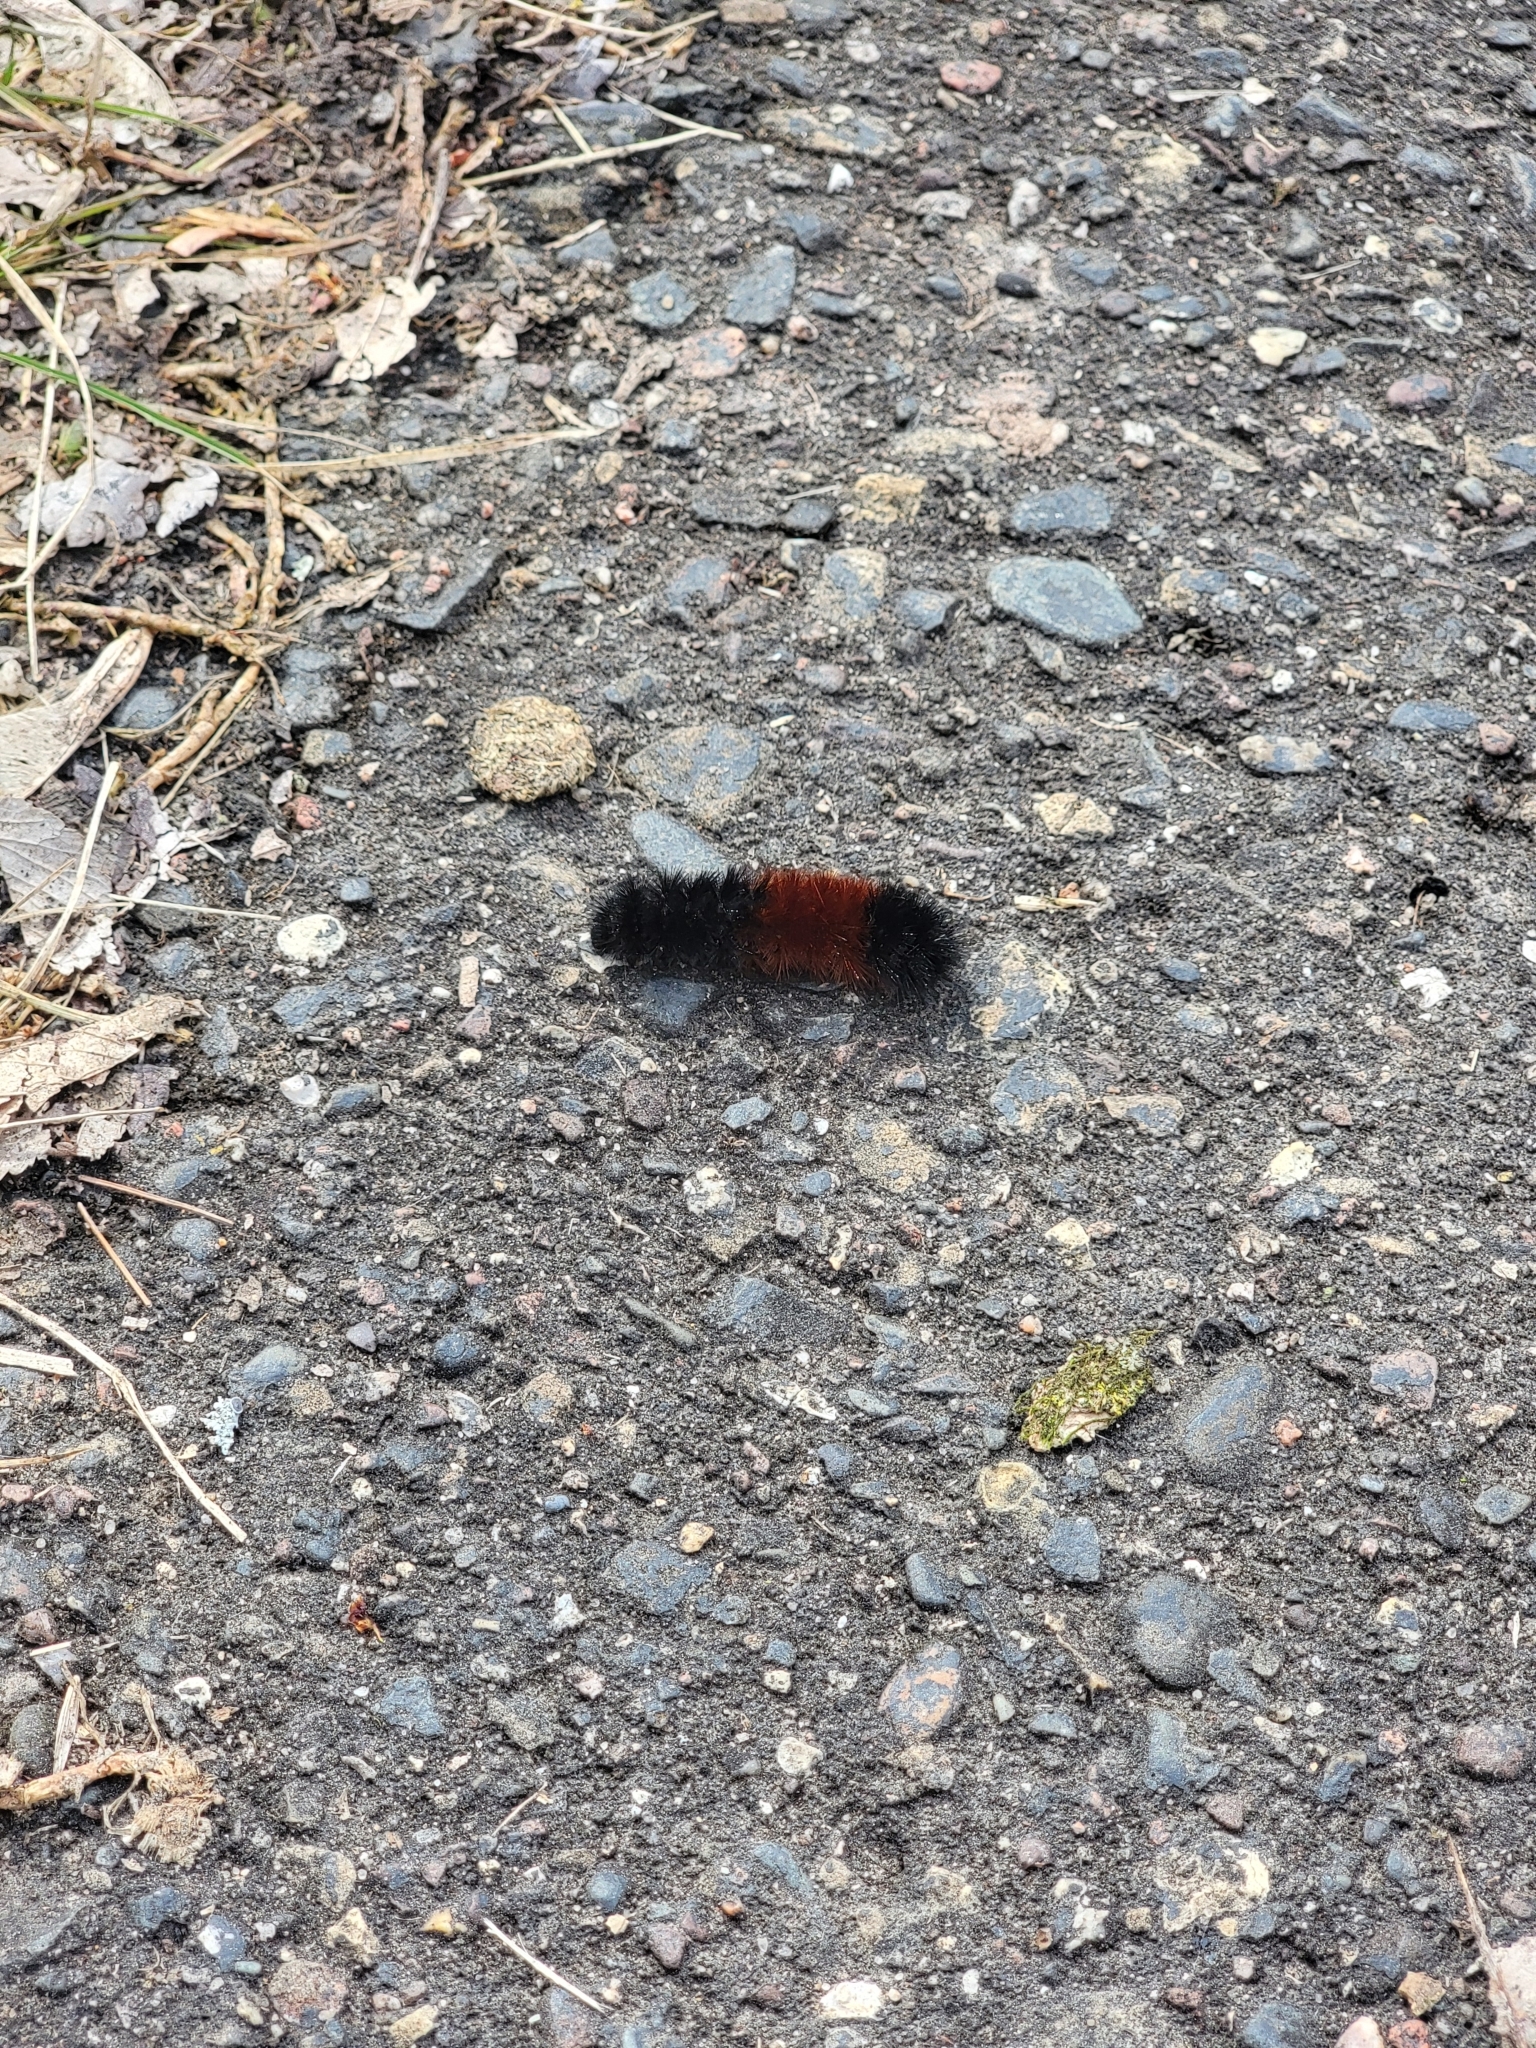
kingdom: Animalia
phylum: Arthropoda
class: Insecta
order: Lepidoptera
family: Erebidae
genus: Pyrrharctia
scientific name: Pyrrharctia isabella
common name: Isabella tiger moth
